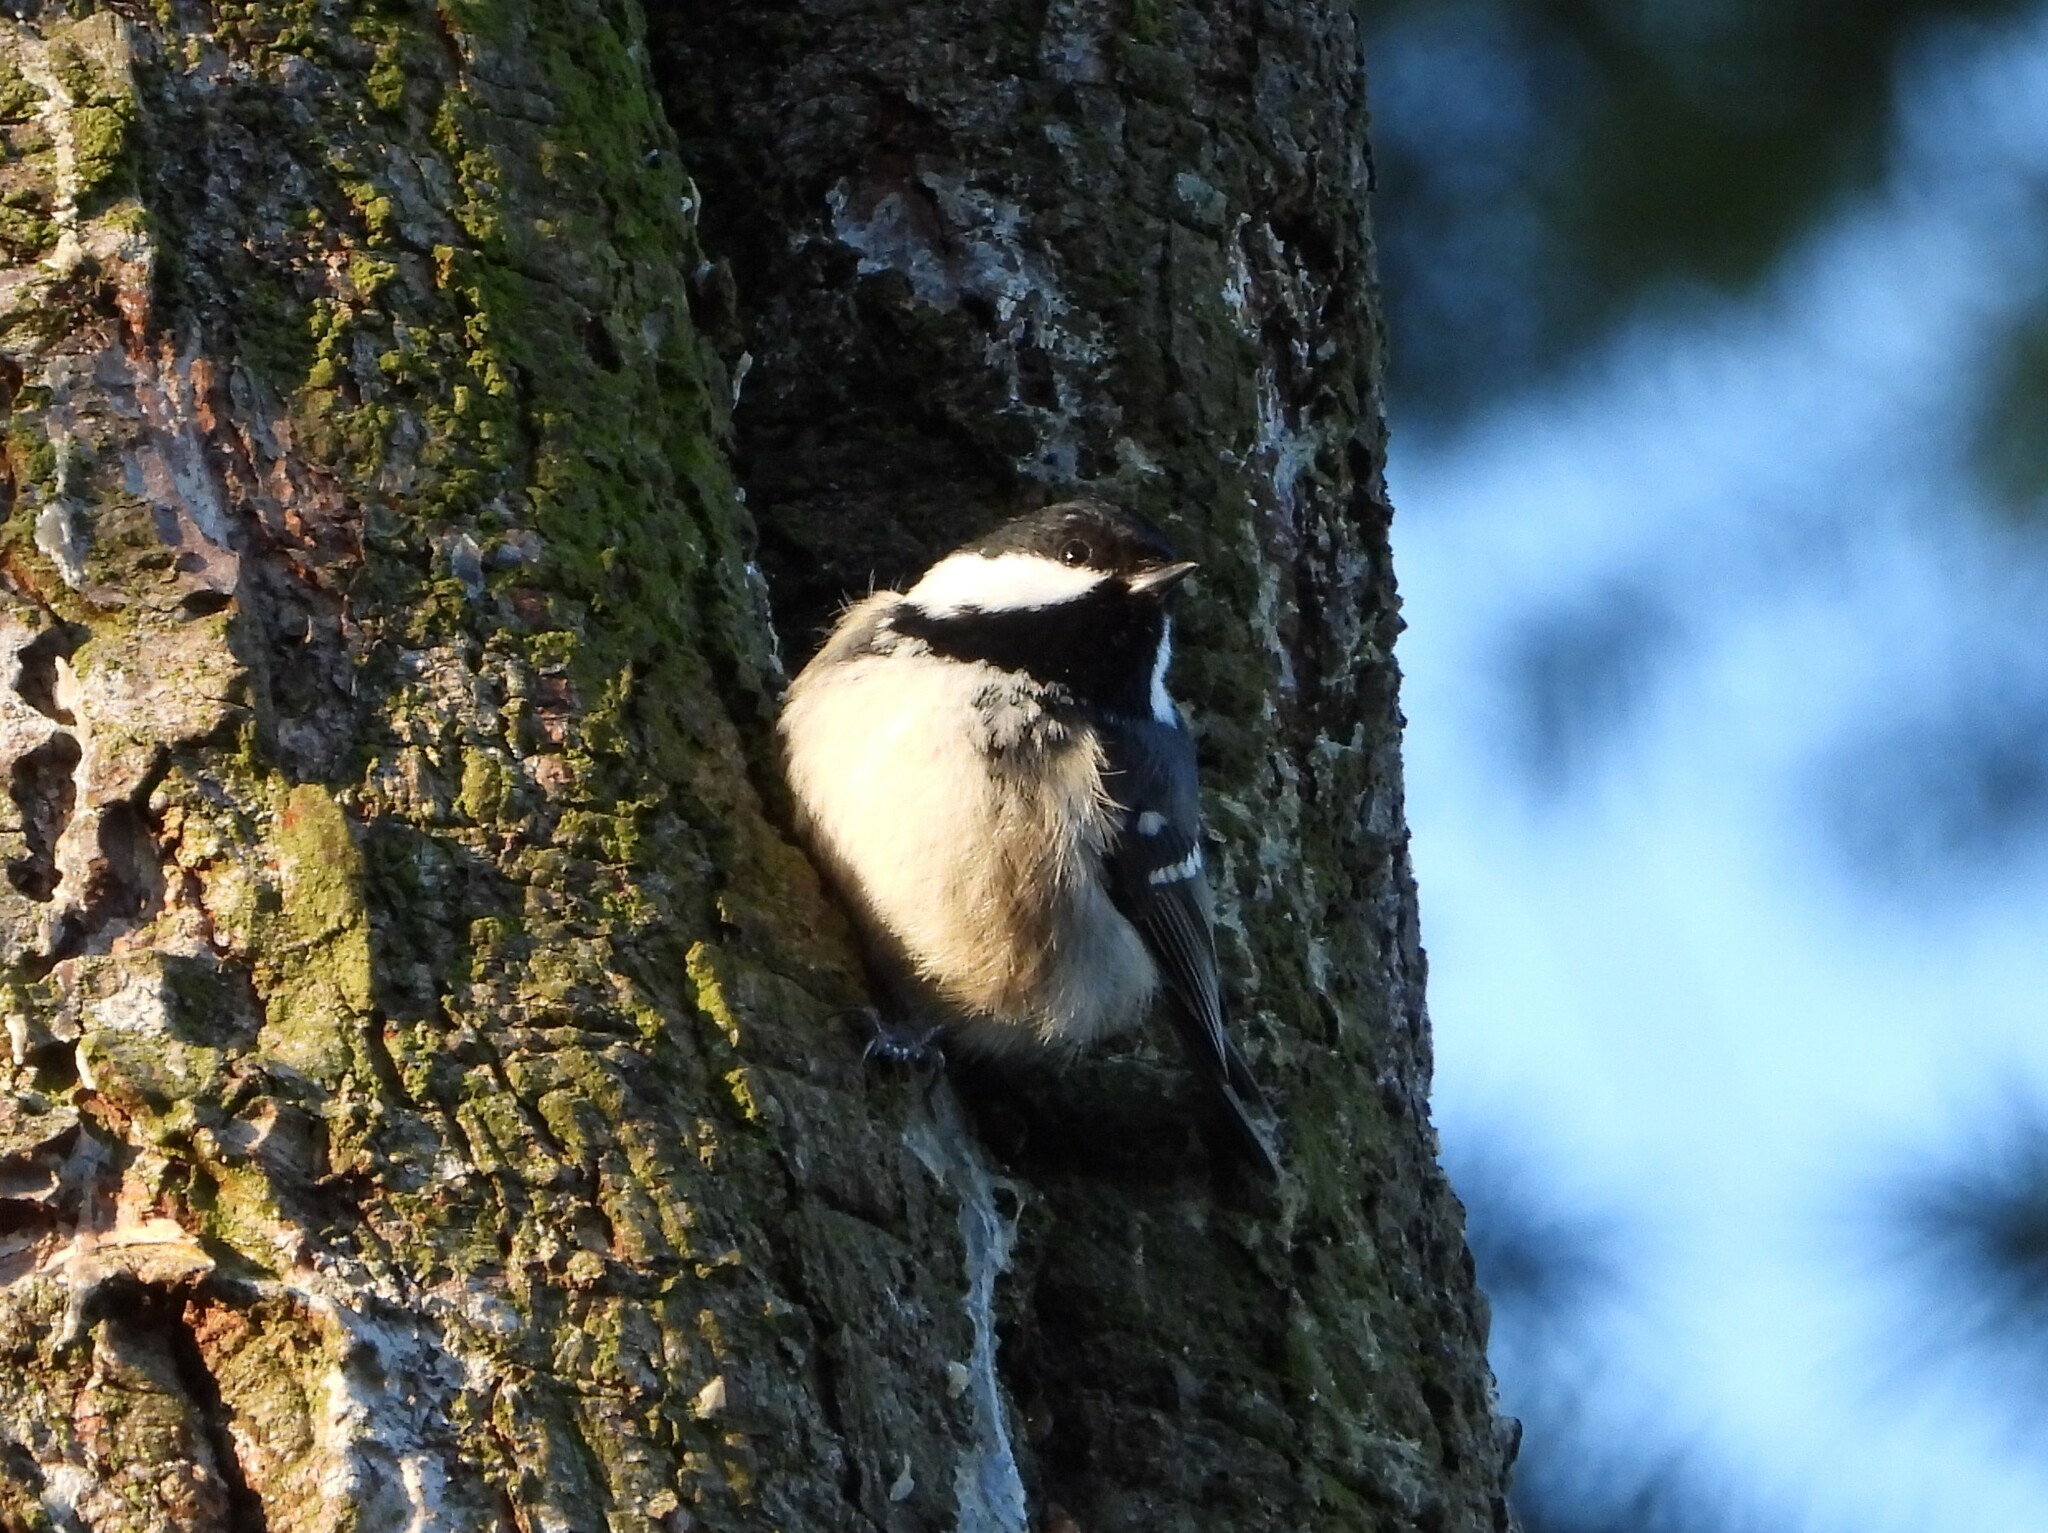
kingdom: Animalia
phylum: Chordata
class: Aves
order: Passeriformes
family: Paridae
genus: Periparus
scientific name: Periparus ater
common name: Coal tit
